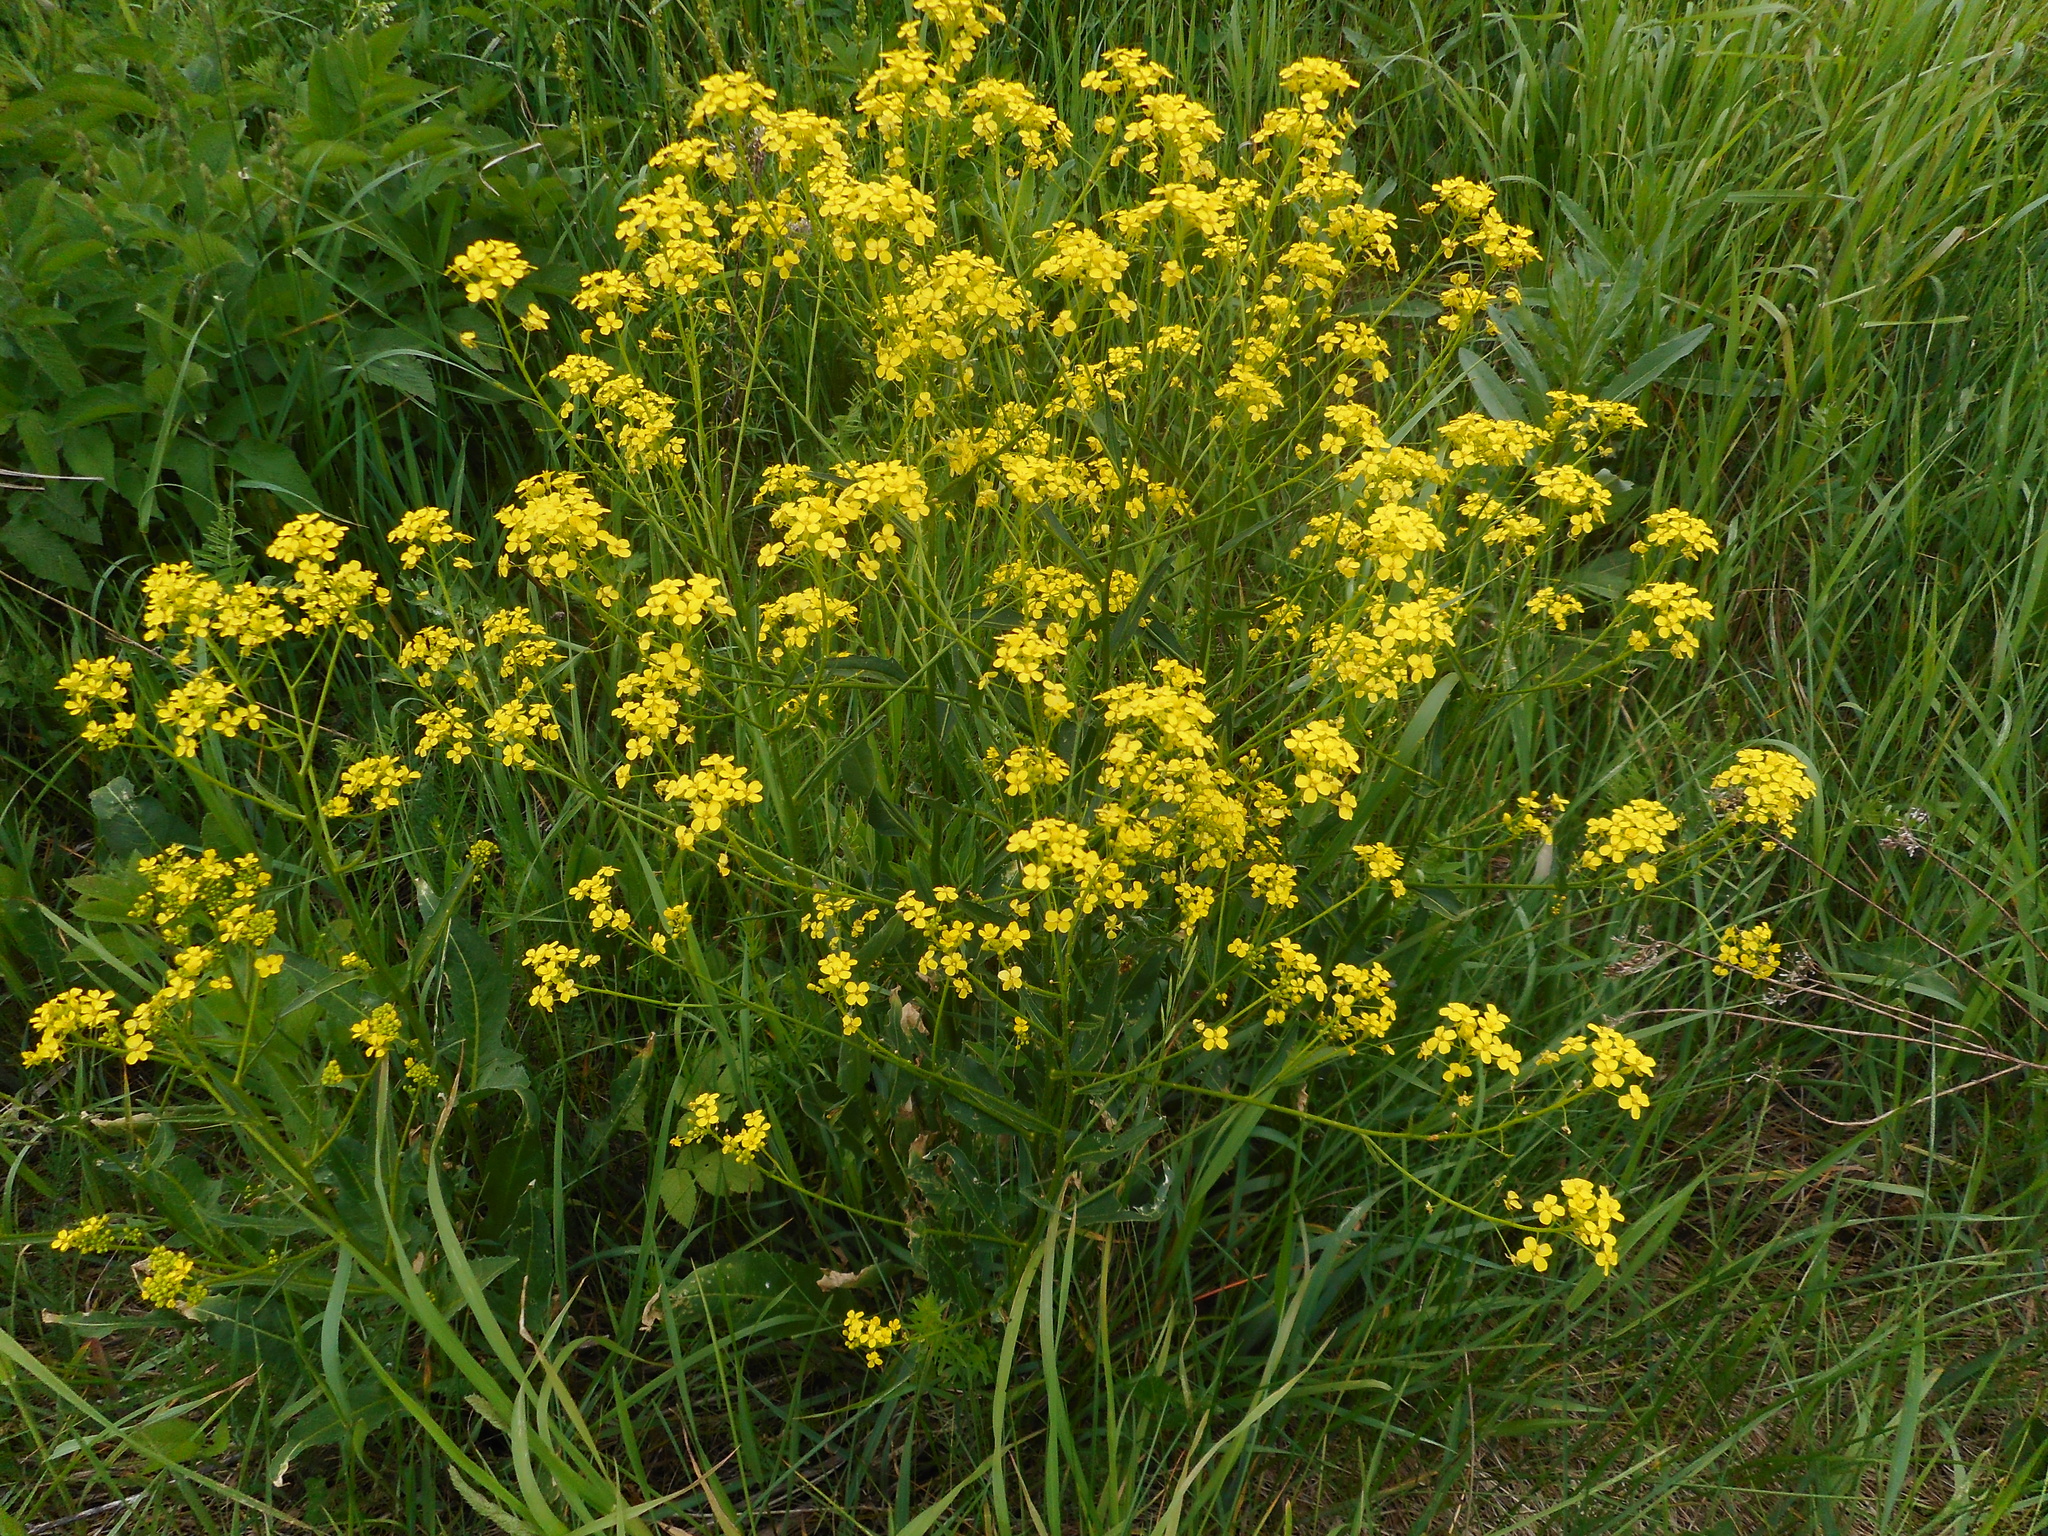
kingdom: Plantae
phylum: Tracheophyta
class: Magnoliopsida
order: Brassicales
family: Brassicaceae
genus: Bunias
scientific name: Bunias orientalis
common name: Warty-cabbage
